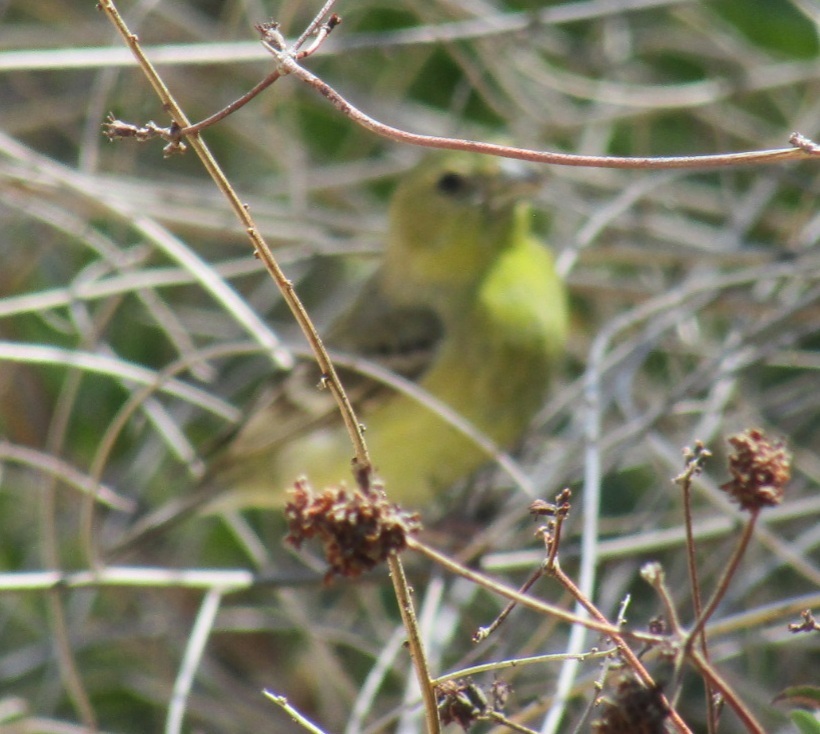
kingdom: Animalia
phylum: Chordata
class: Aves
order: Passeriformes
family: Fringillidae
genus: Spinus
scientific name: Spinus psaltria
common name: Lesser goldfinch
